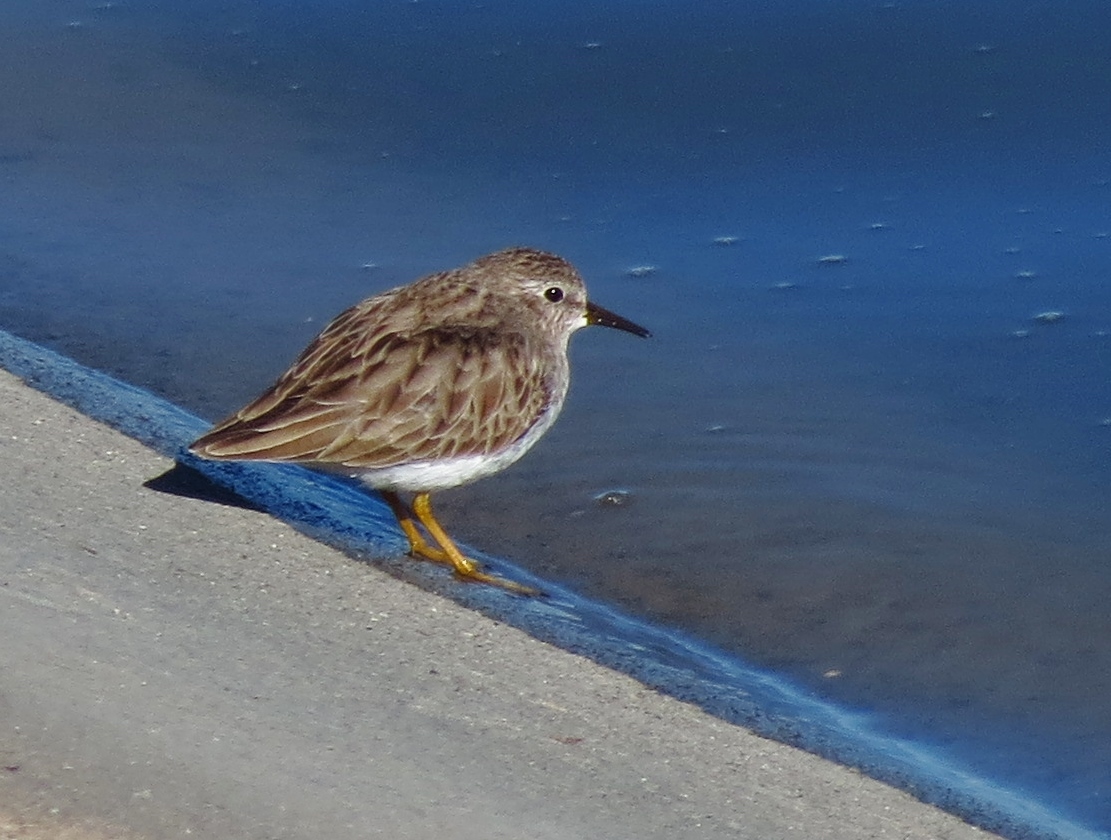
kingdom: Animalia
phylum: Chordata
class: Aves
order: Charadriiformes
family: Scolopacidae
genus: Calidris
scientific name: Calidris minutilla
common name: Least sandpiper
